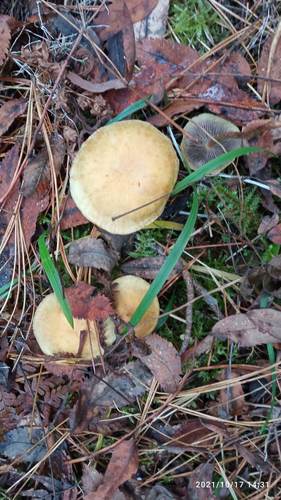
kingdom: Fungi
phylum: Basidiomycota
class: Agaricomycetes
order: Agaricales
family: Strophariaceae
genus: Hypholoma
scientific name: Hypholoma fasciculare
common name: Sulphur tuft
